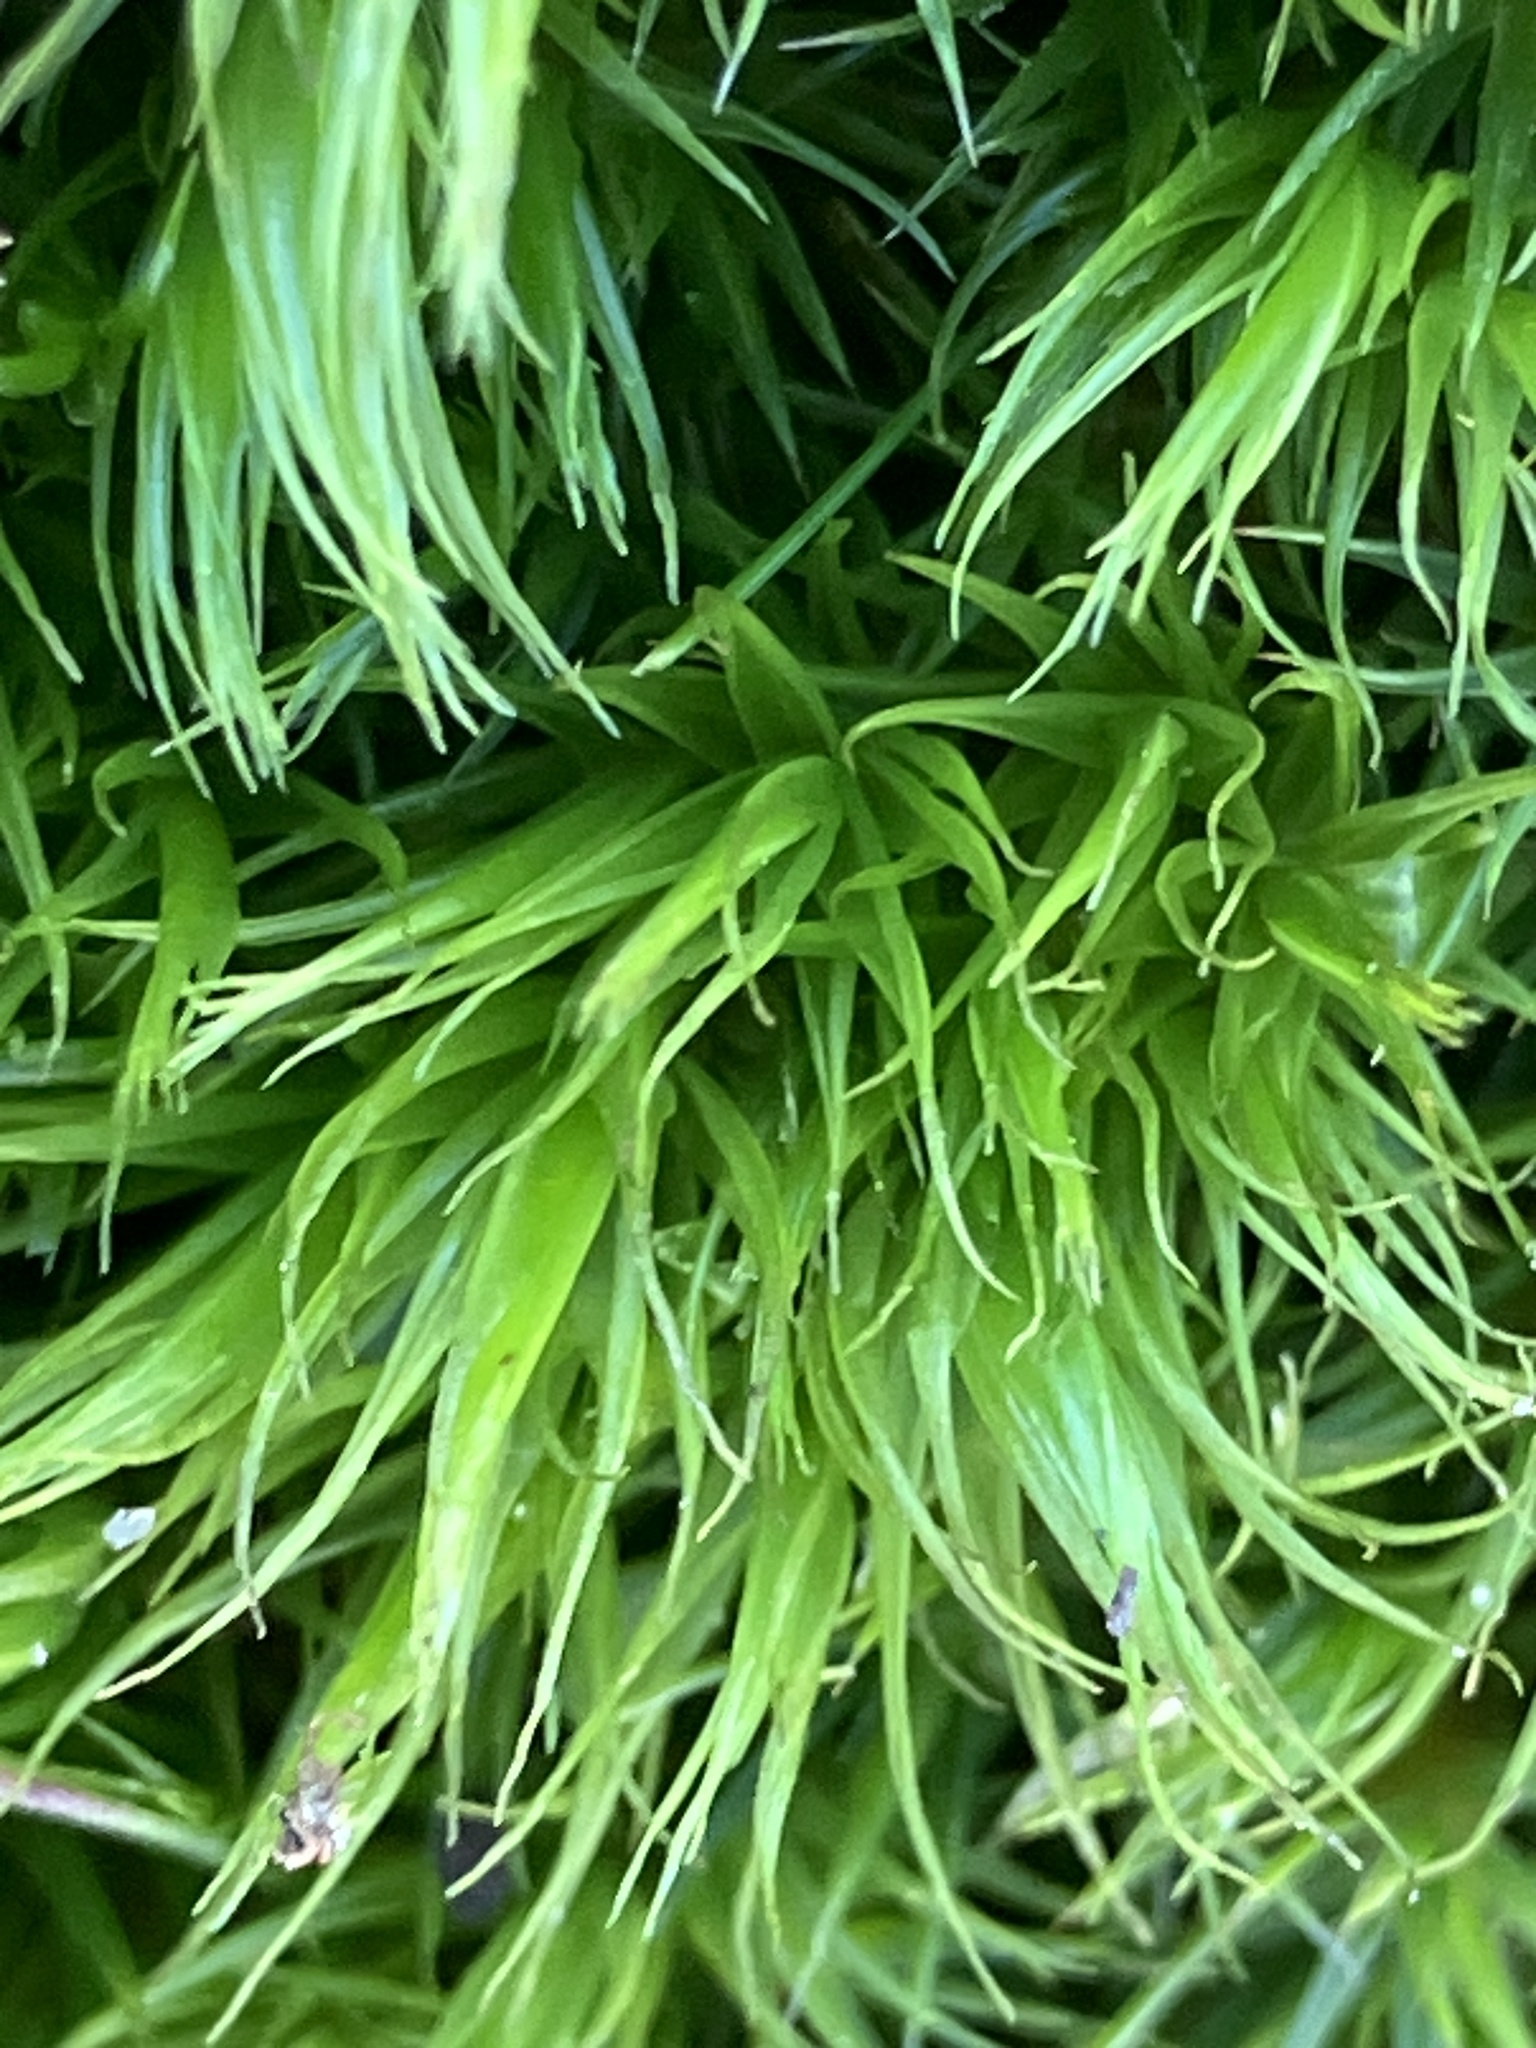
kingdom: Plantae
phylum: Bryophyta
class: Bryopsida
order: Dicranales
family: Dicranaceae
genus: Dicranum
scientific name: Dicranum scoparium
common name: Broom fork-moss
